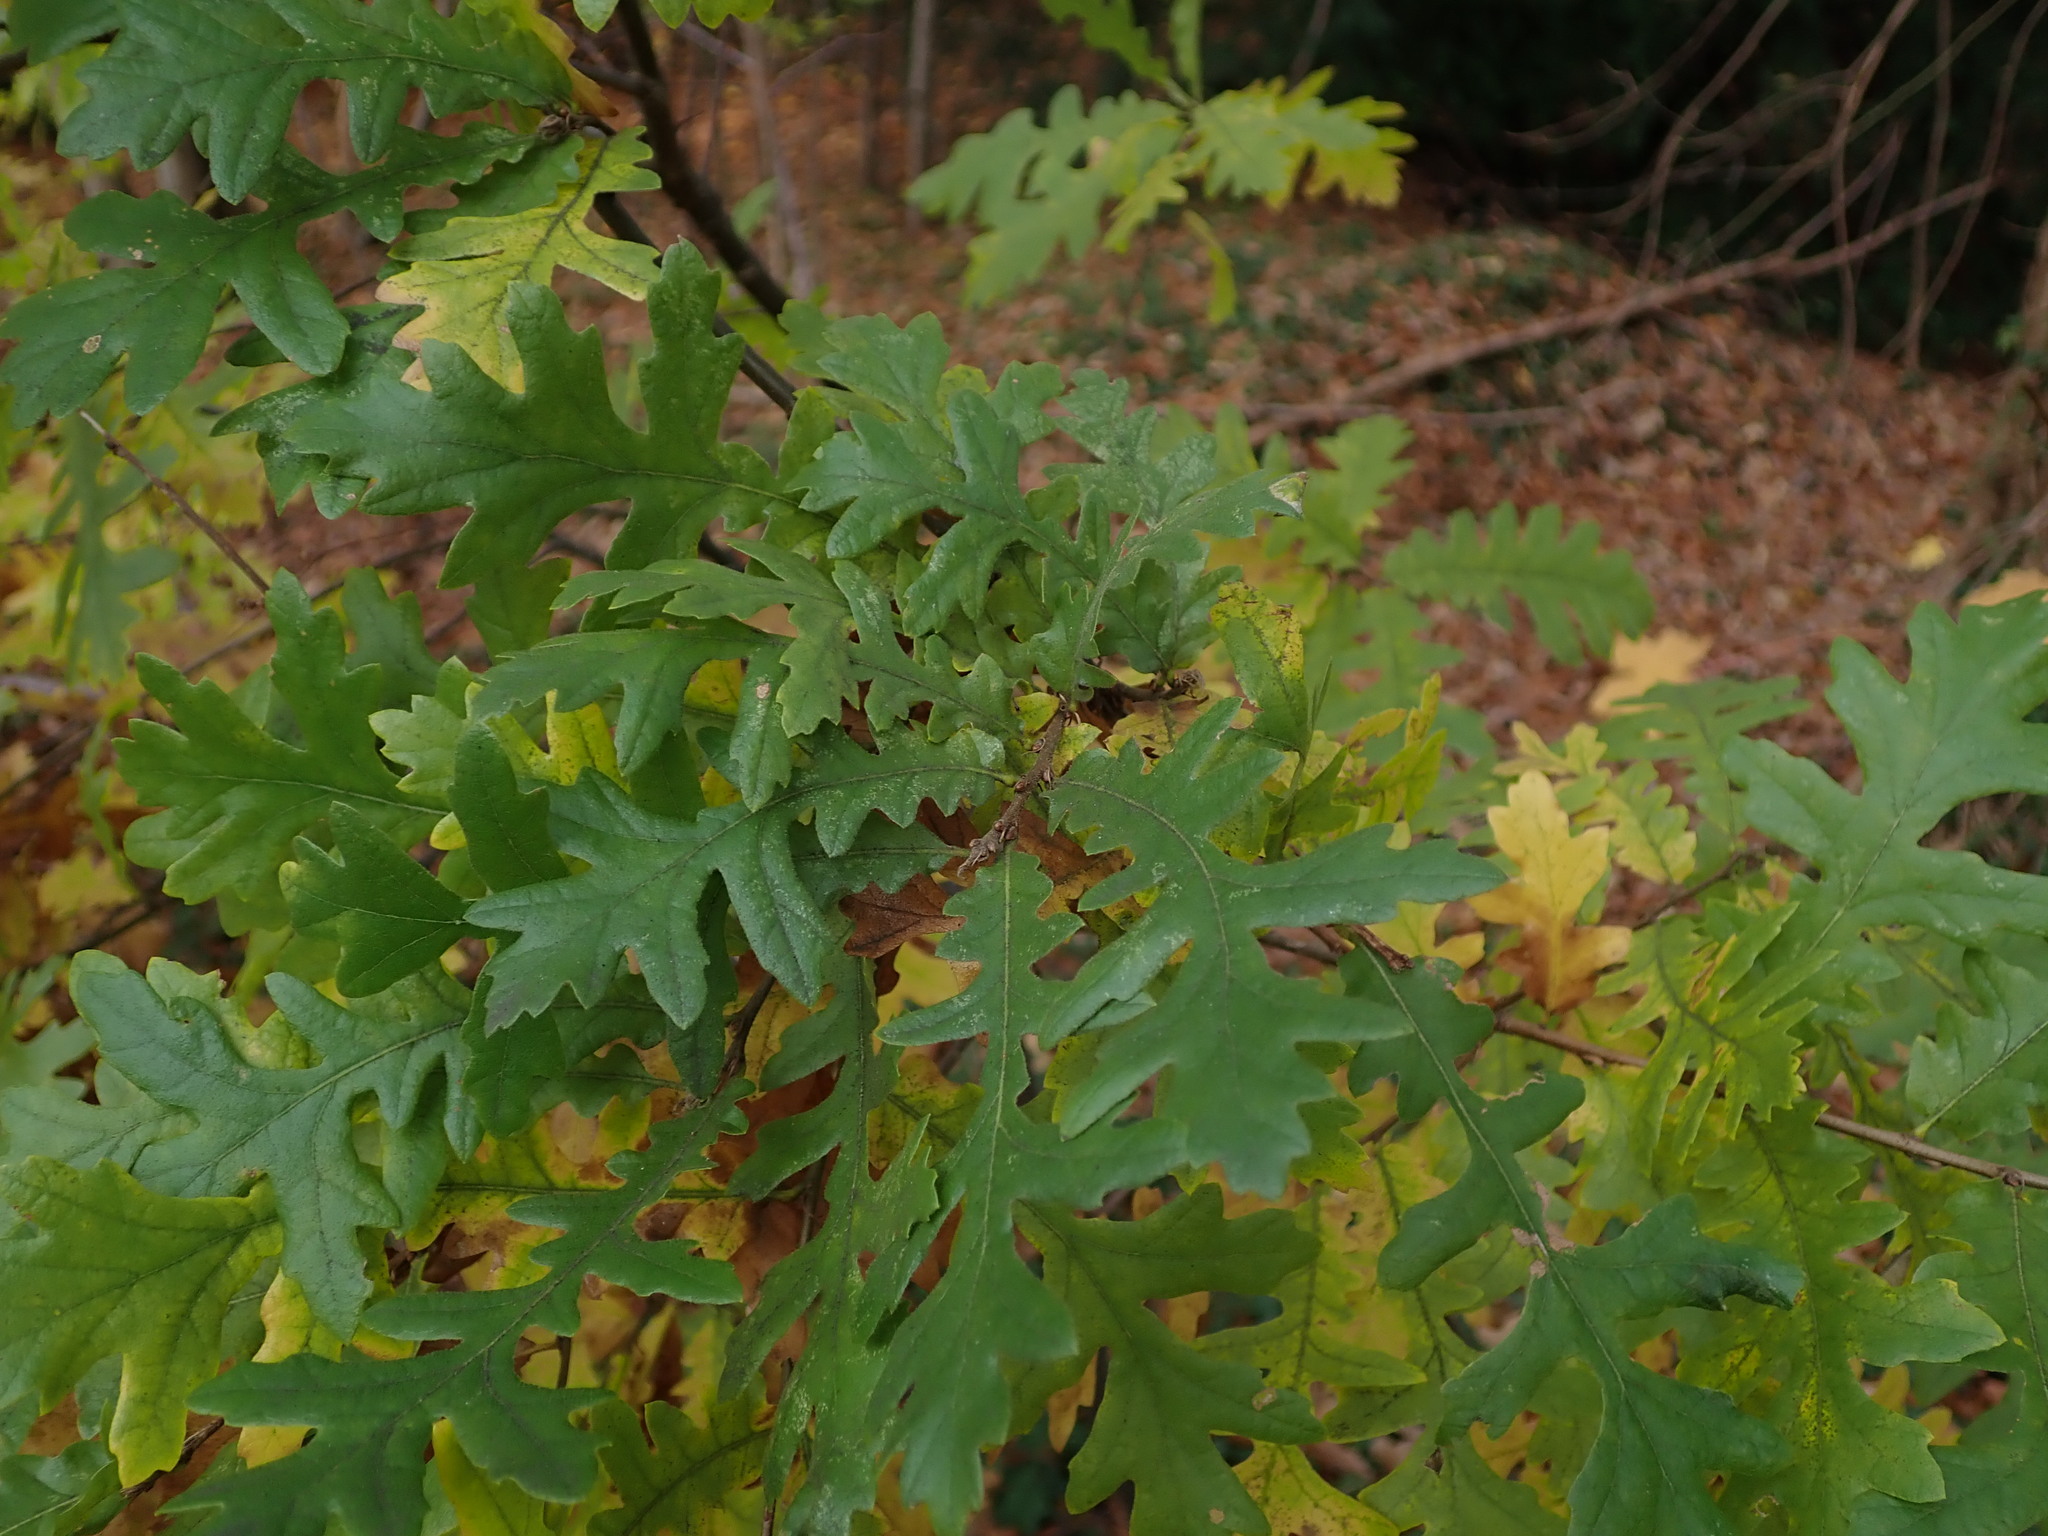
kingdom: Plantae
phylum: Tracheophyta
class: Magnoliopsida
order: Fagales
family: Fagaceae
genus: Quercus
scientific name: Quercus cerris
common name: Turkey oak
